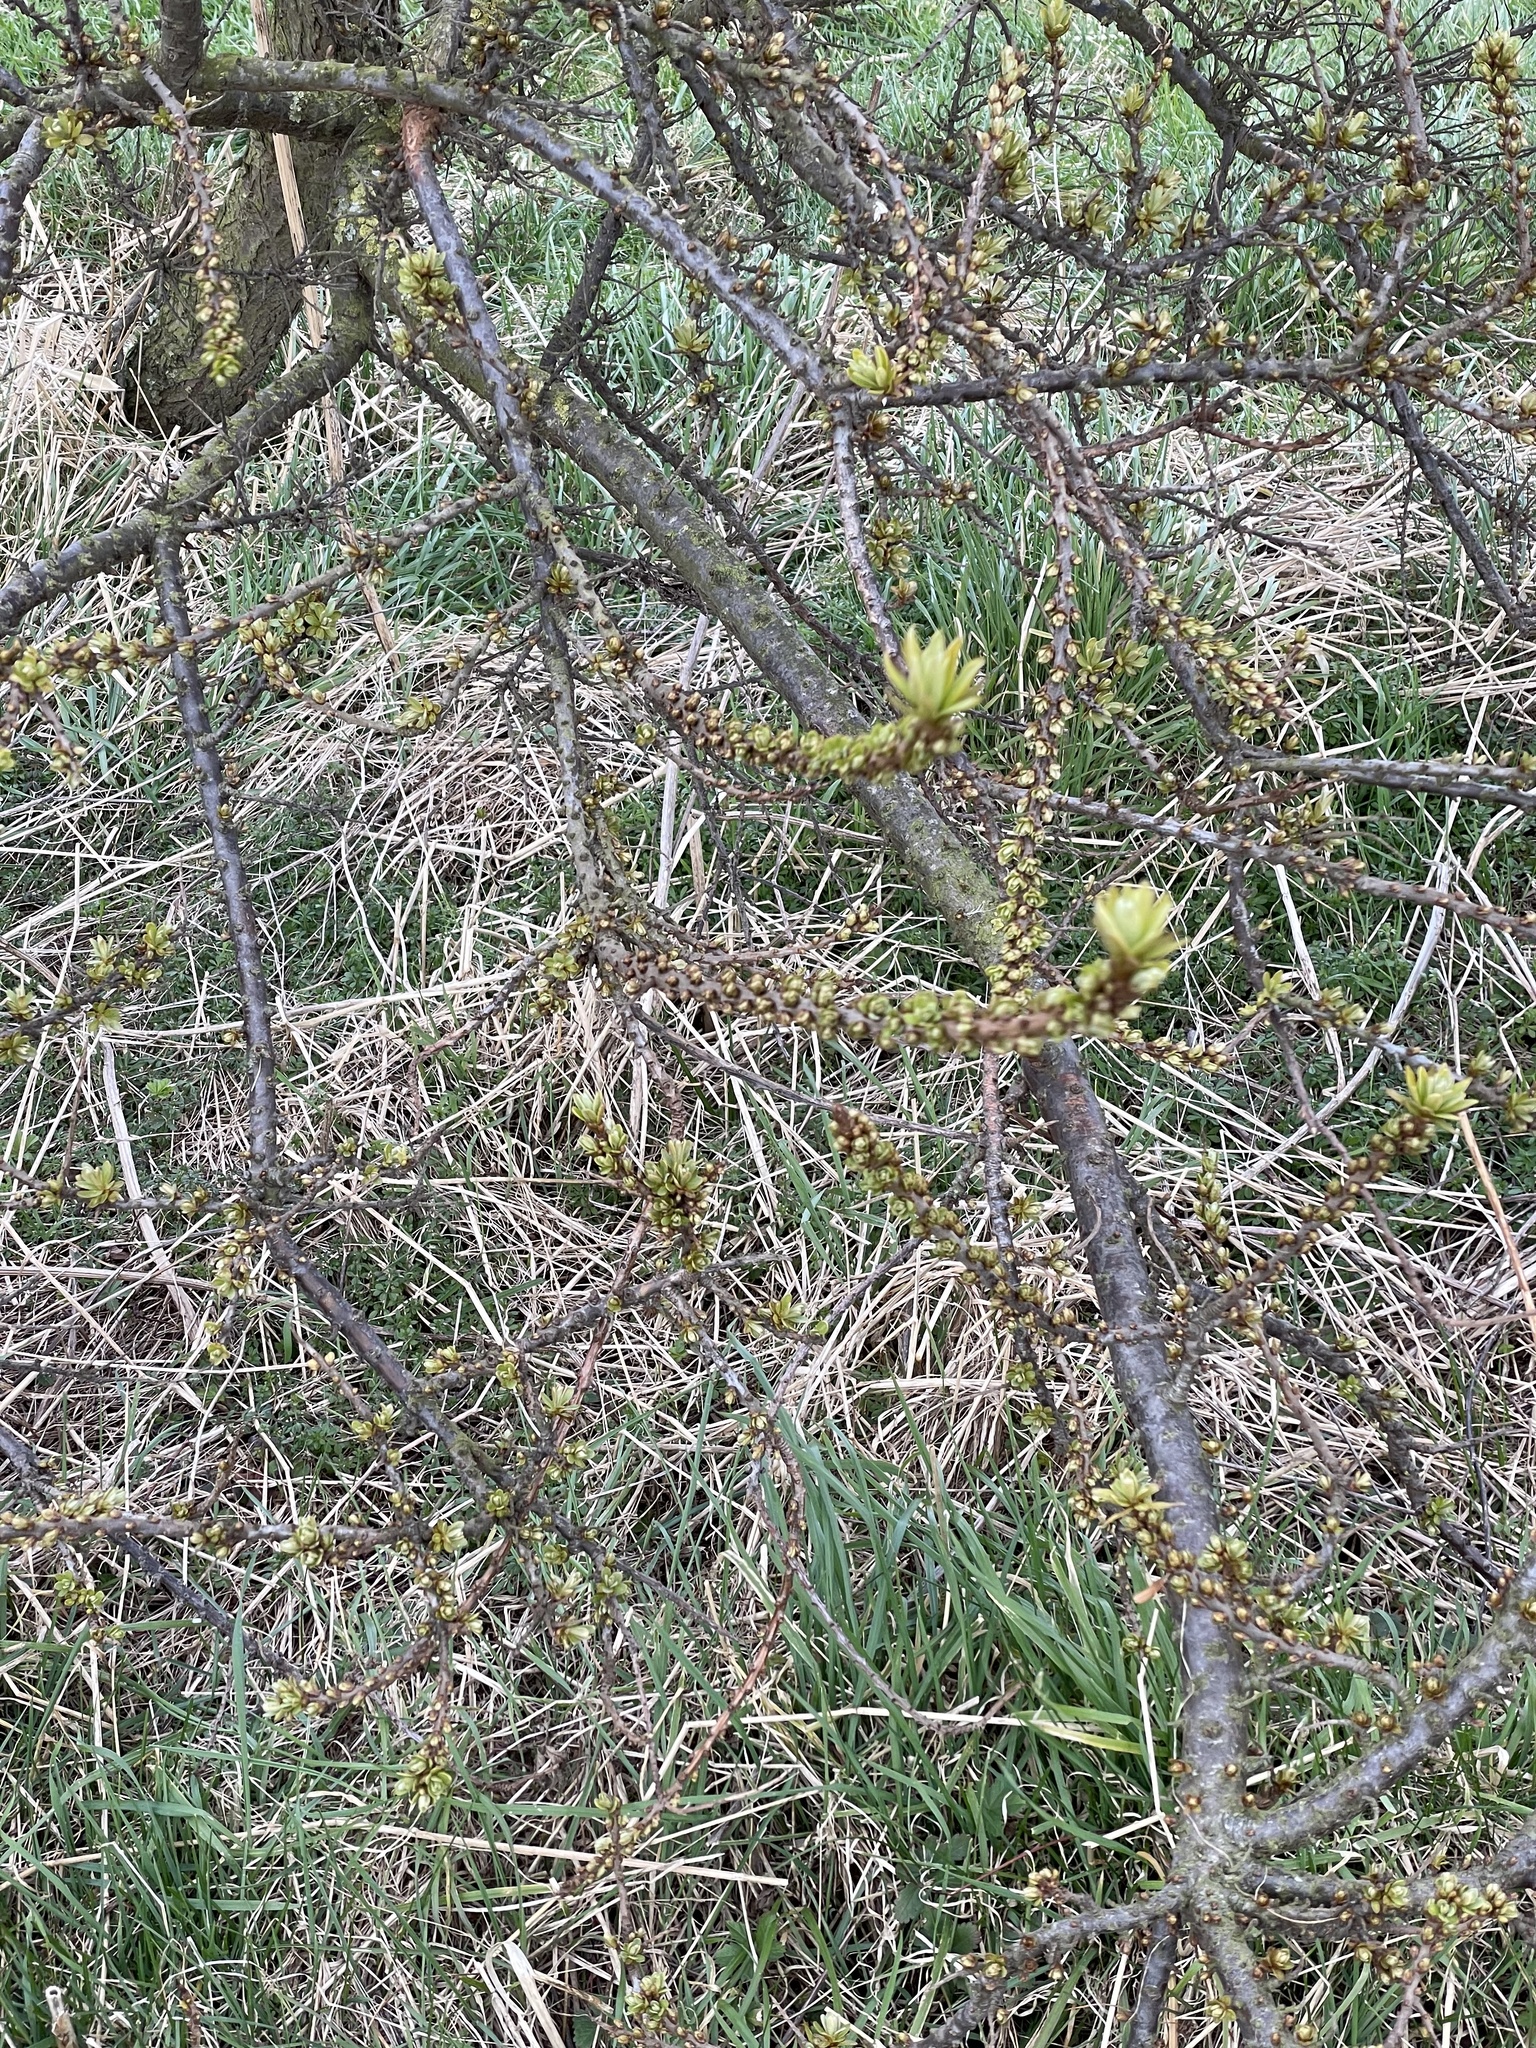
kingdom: Plantae
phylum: Tracheophyta
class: Magnoliopsida
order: Rosales
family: Elaeagnaceae
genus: Hippophae
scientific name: Hippophae rhamnoides
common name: Sea-buckthorn
